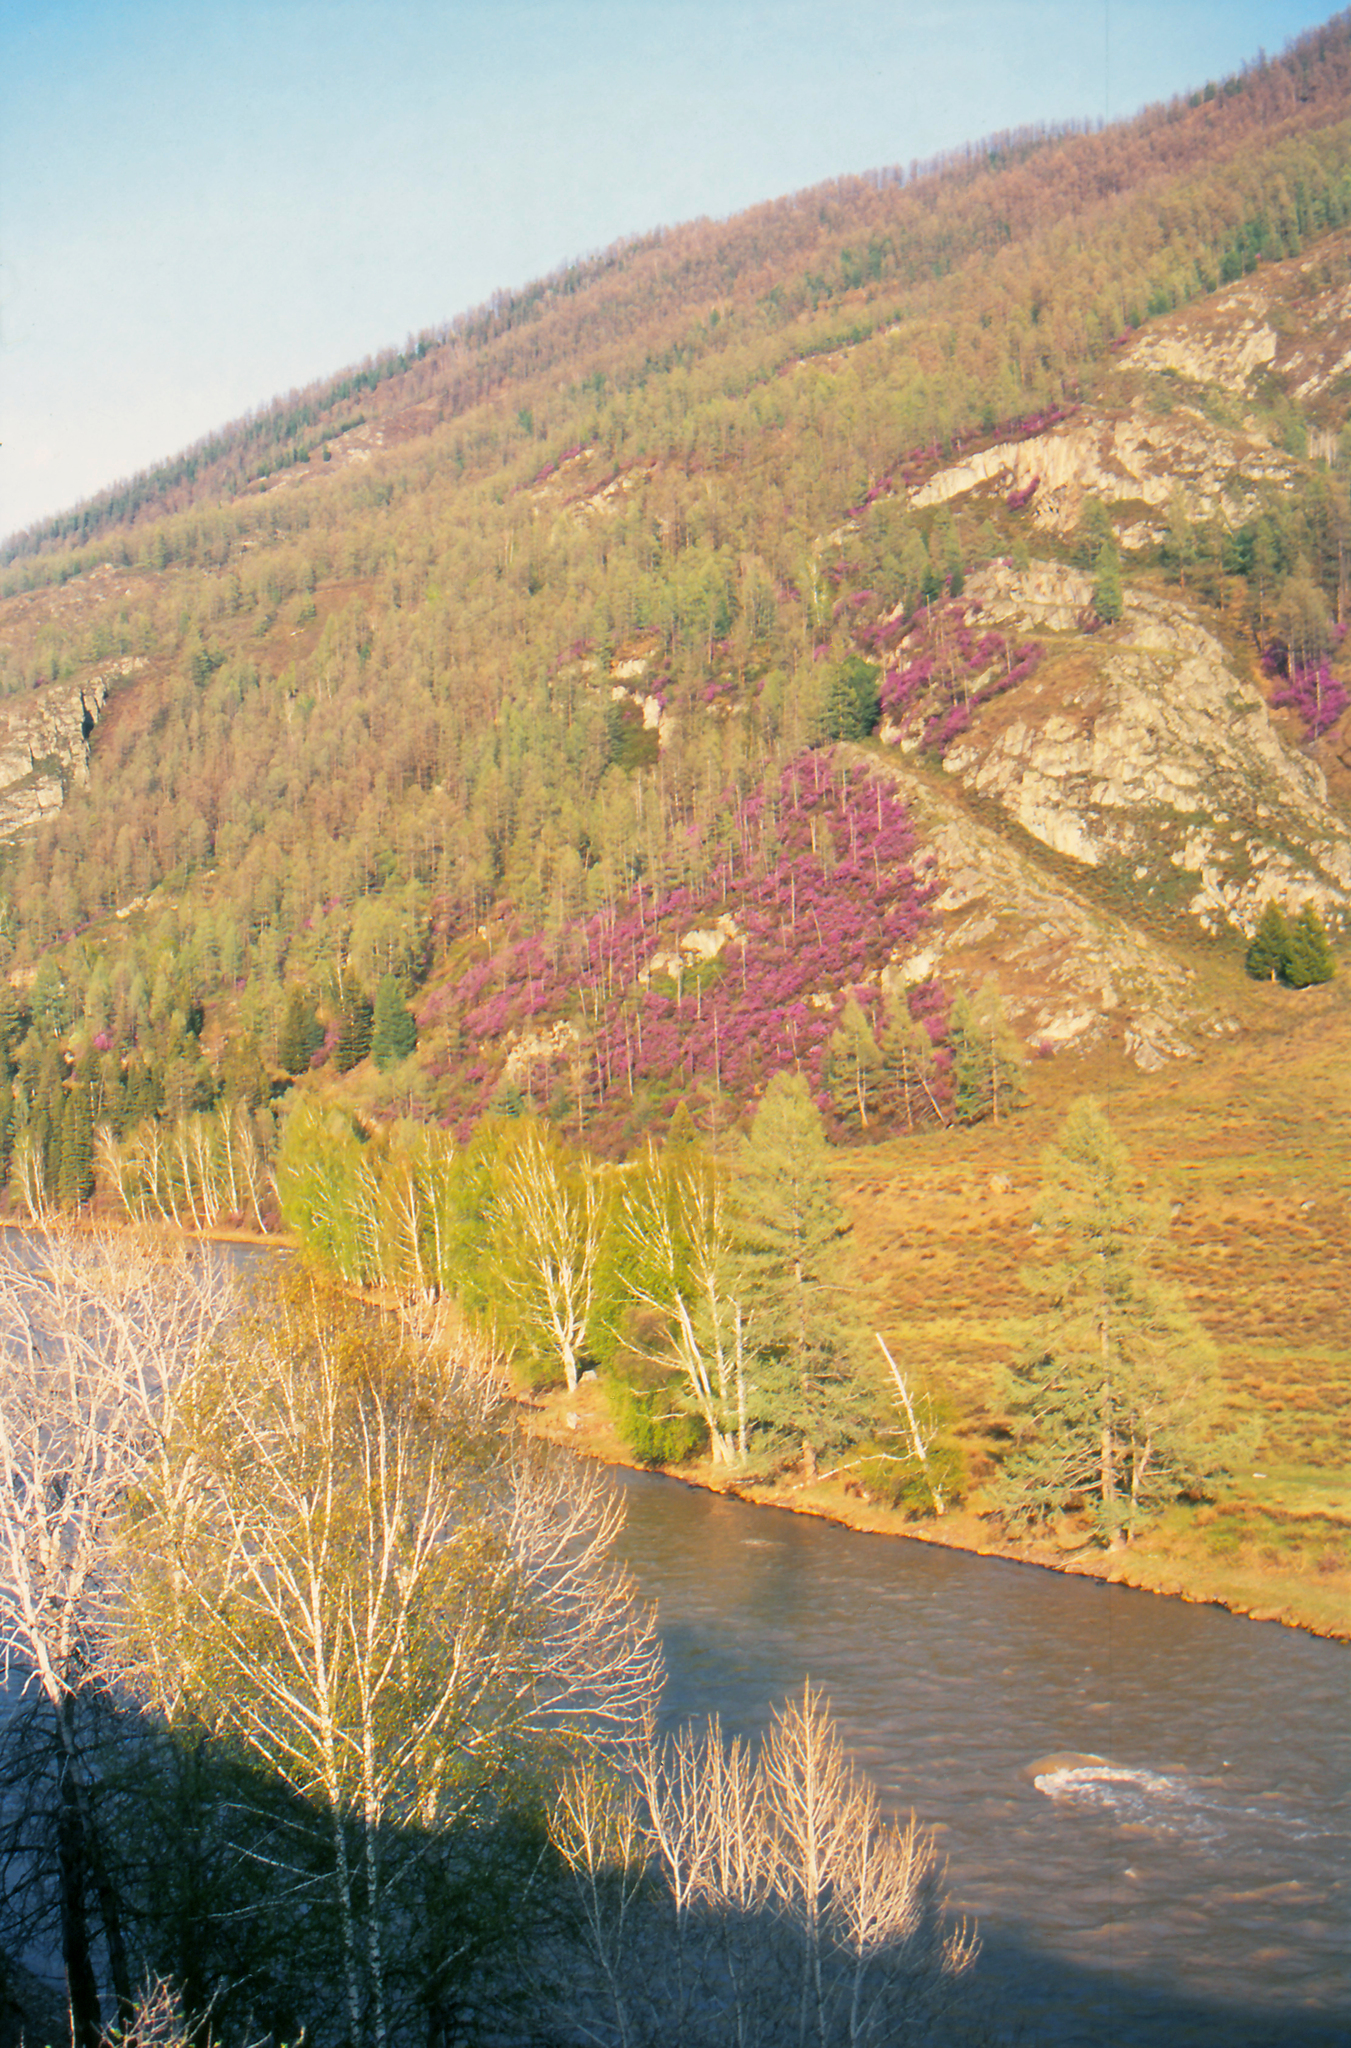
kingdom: Plantae
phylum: Tracheophyta
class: Magnoliopsida
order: Ericales
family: Ericaceae
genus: Rhododendron
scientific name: Rhododendron dauricum
